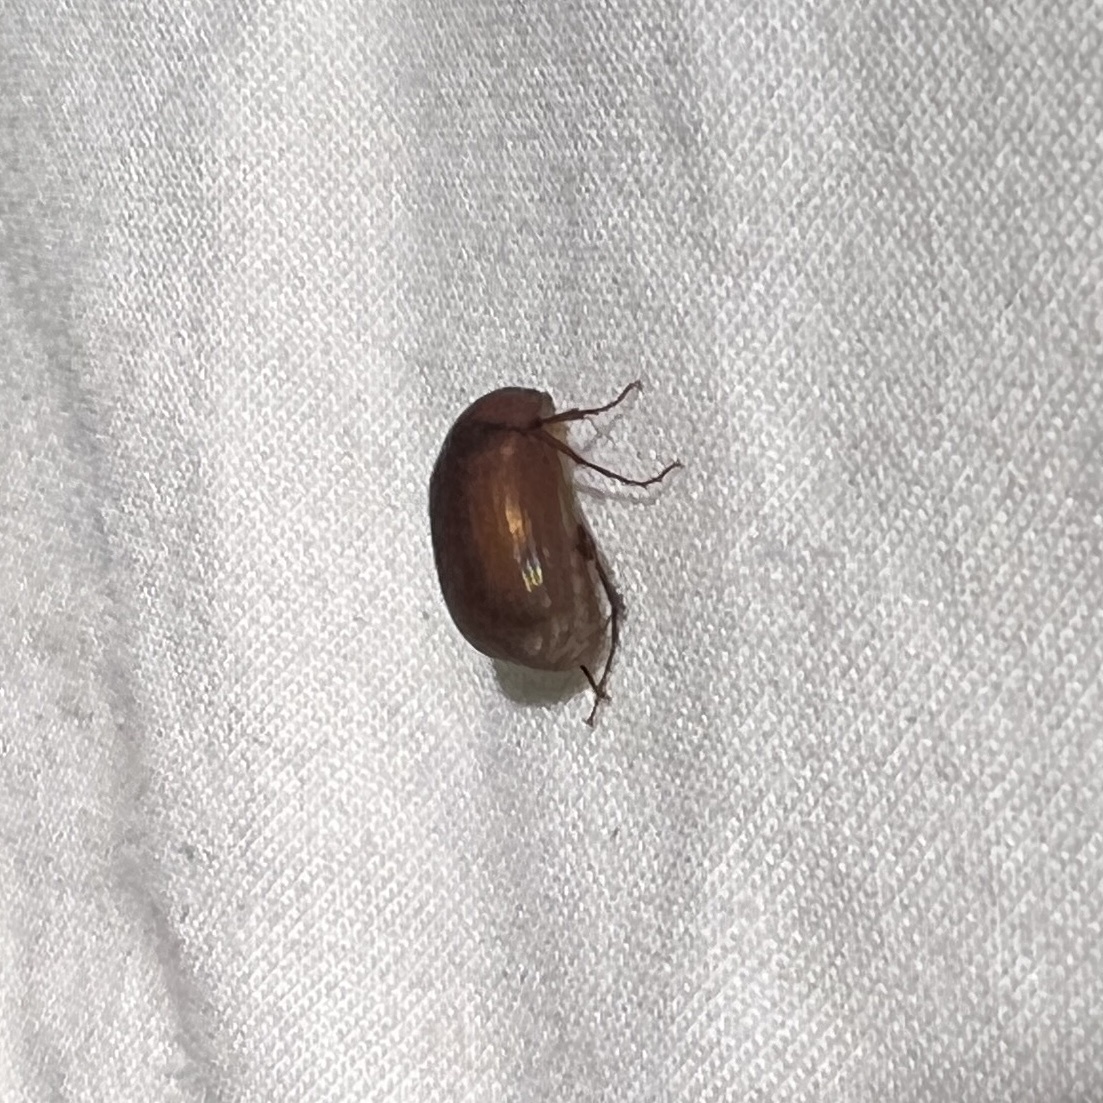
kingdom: Animalia
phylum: Arthropoda
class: Insecta
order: Coleoptera
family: Scarabaeidae
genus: Maladera
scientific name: Maladera formosae
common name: Asiatic garden beetle
